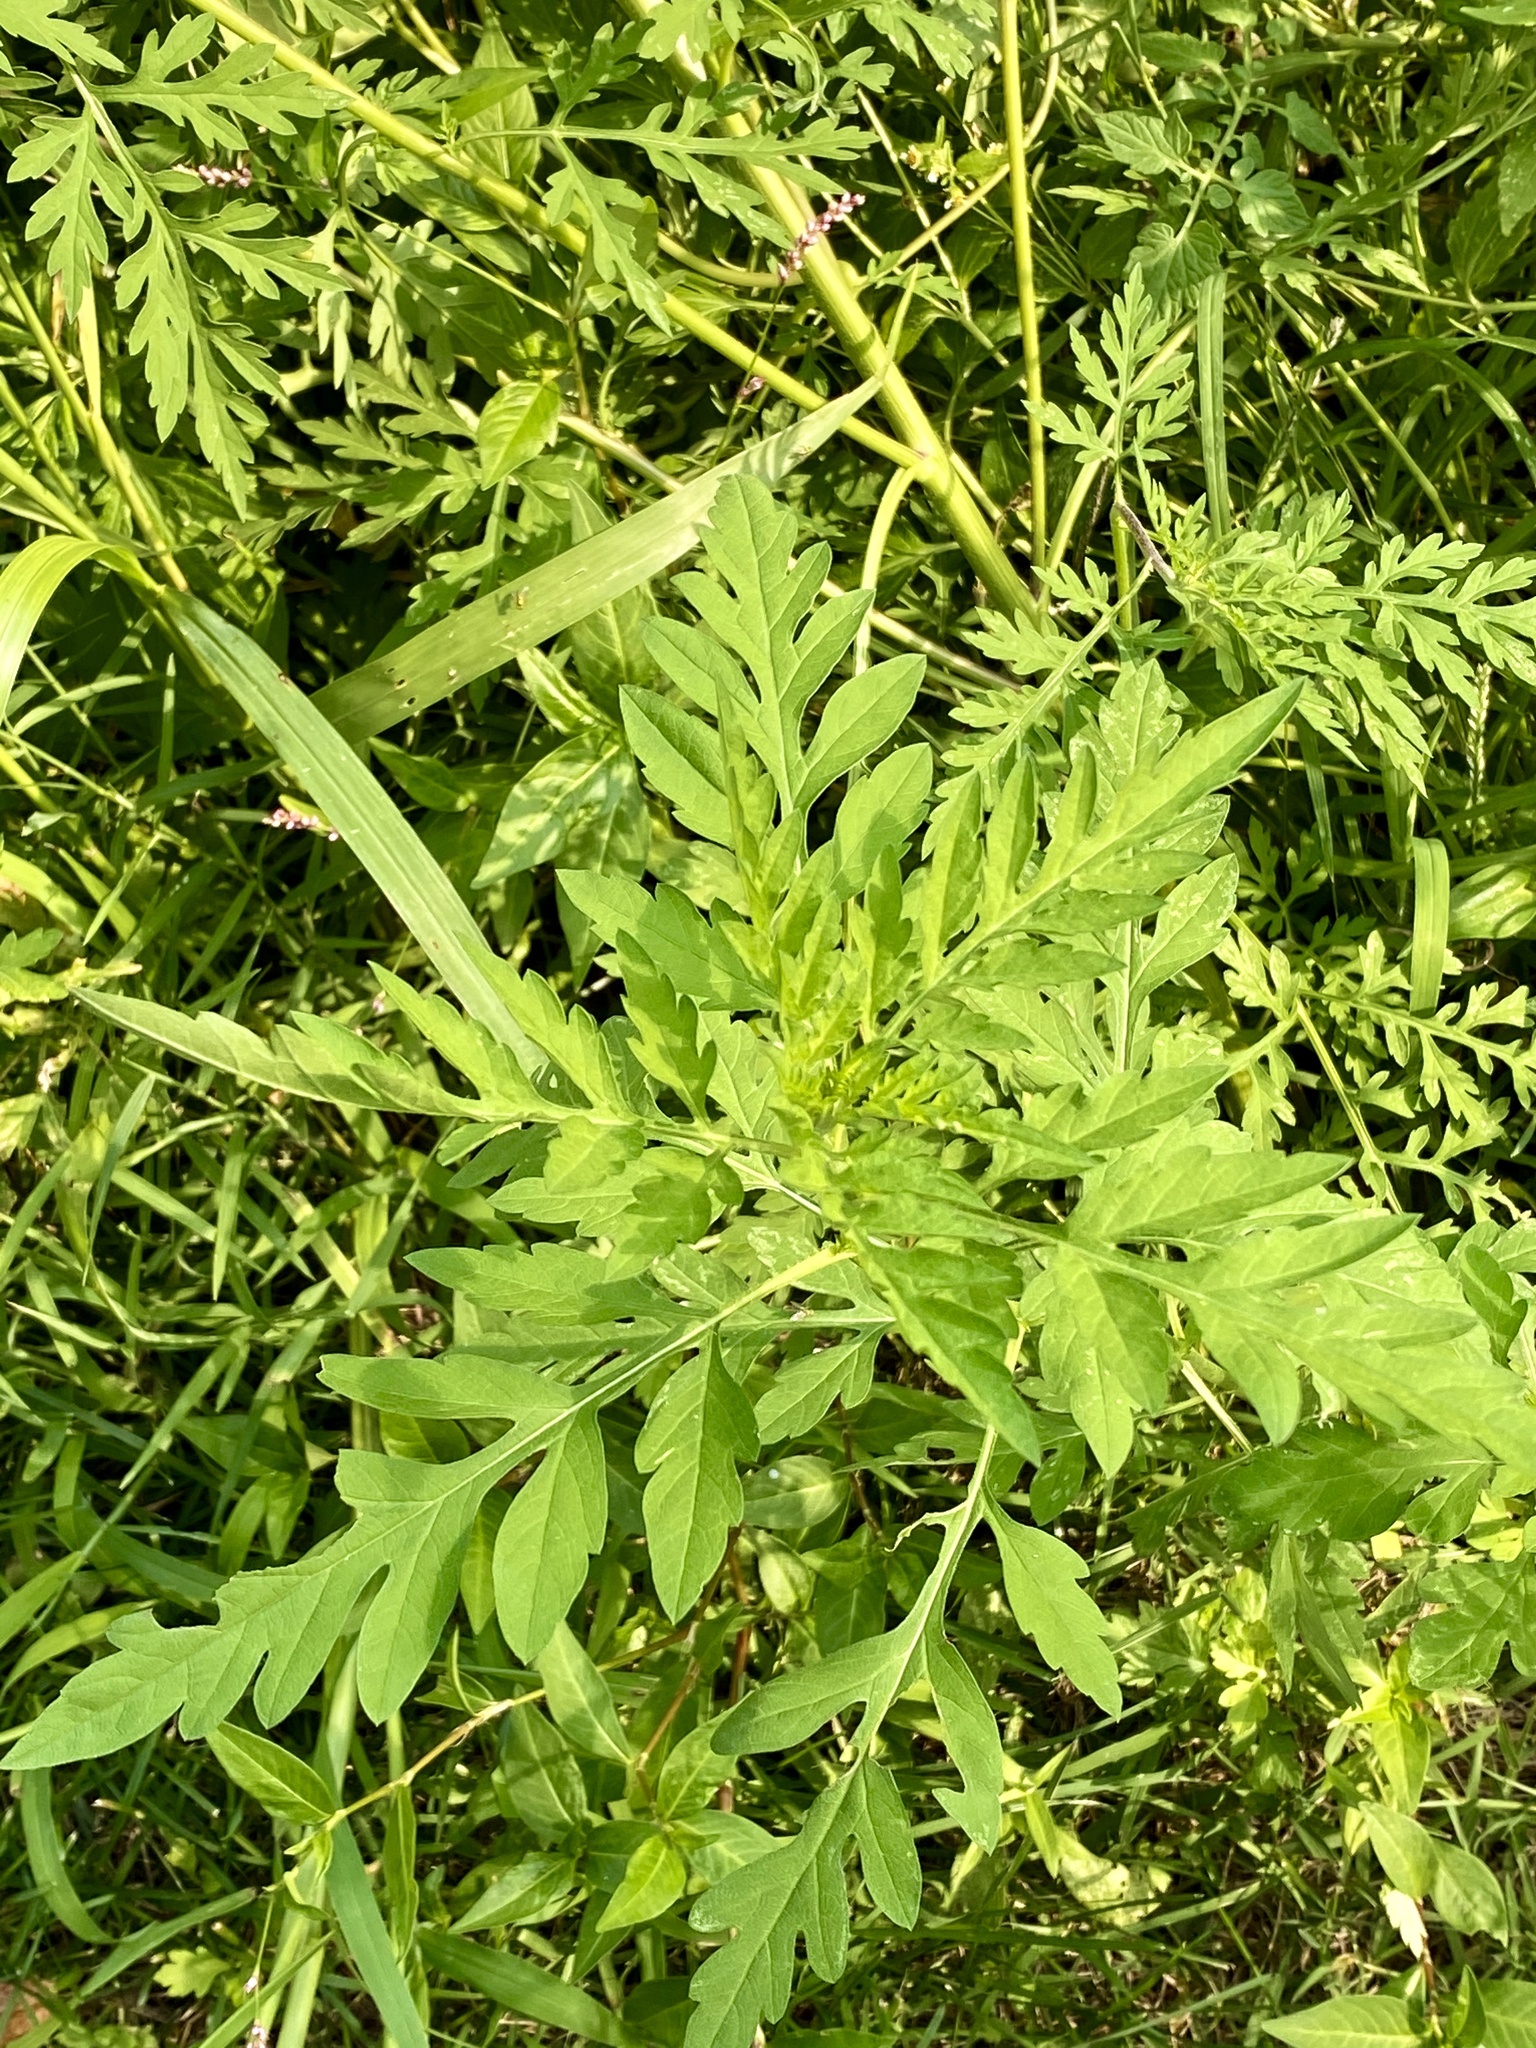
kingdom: Plantae
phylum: Tracheophyta
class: Magnoliopsida
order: Asterales
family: Asteraceae
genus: Ambrosia
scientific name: Ambrosia artemisiifolia
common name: Annual ragweed
